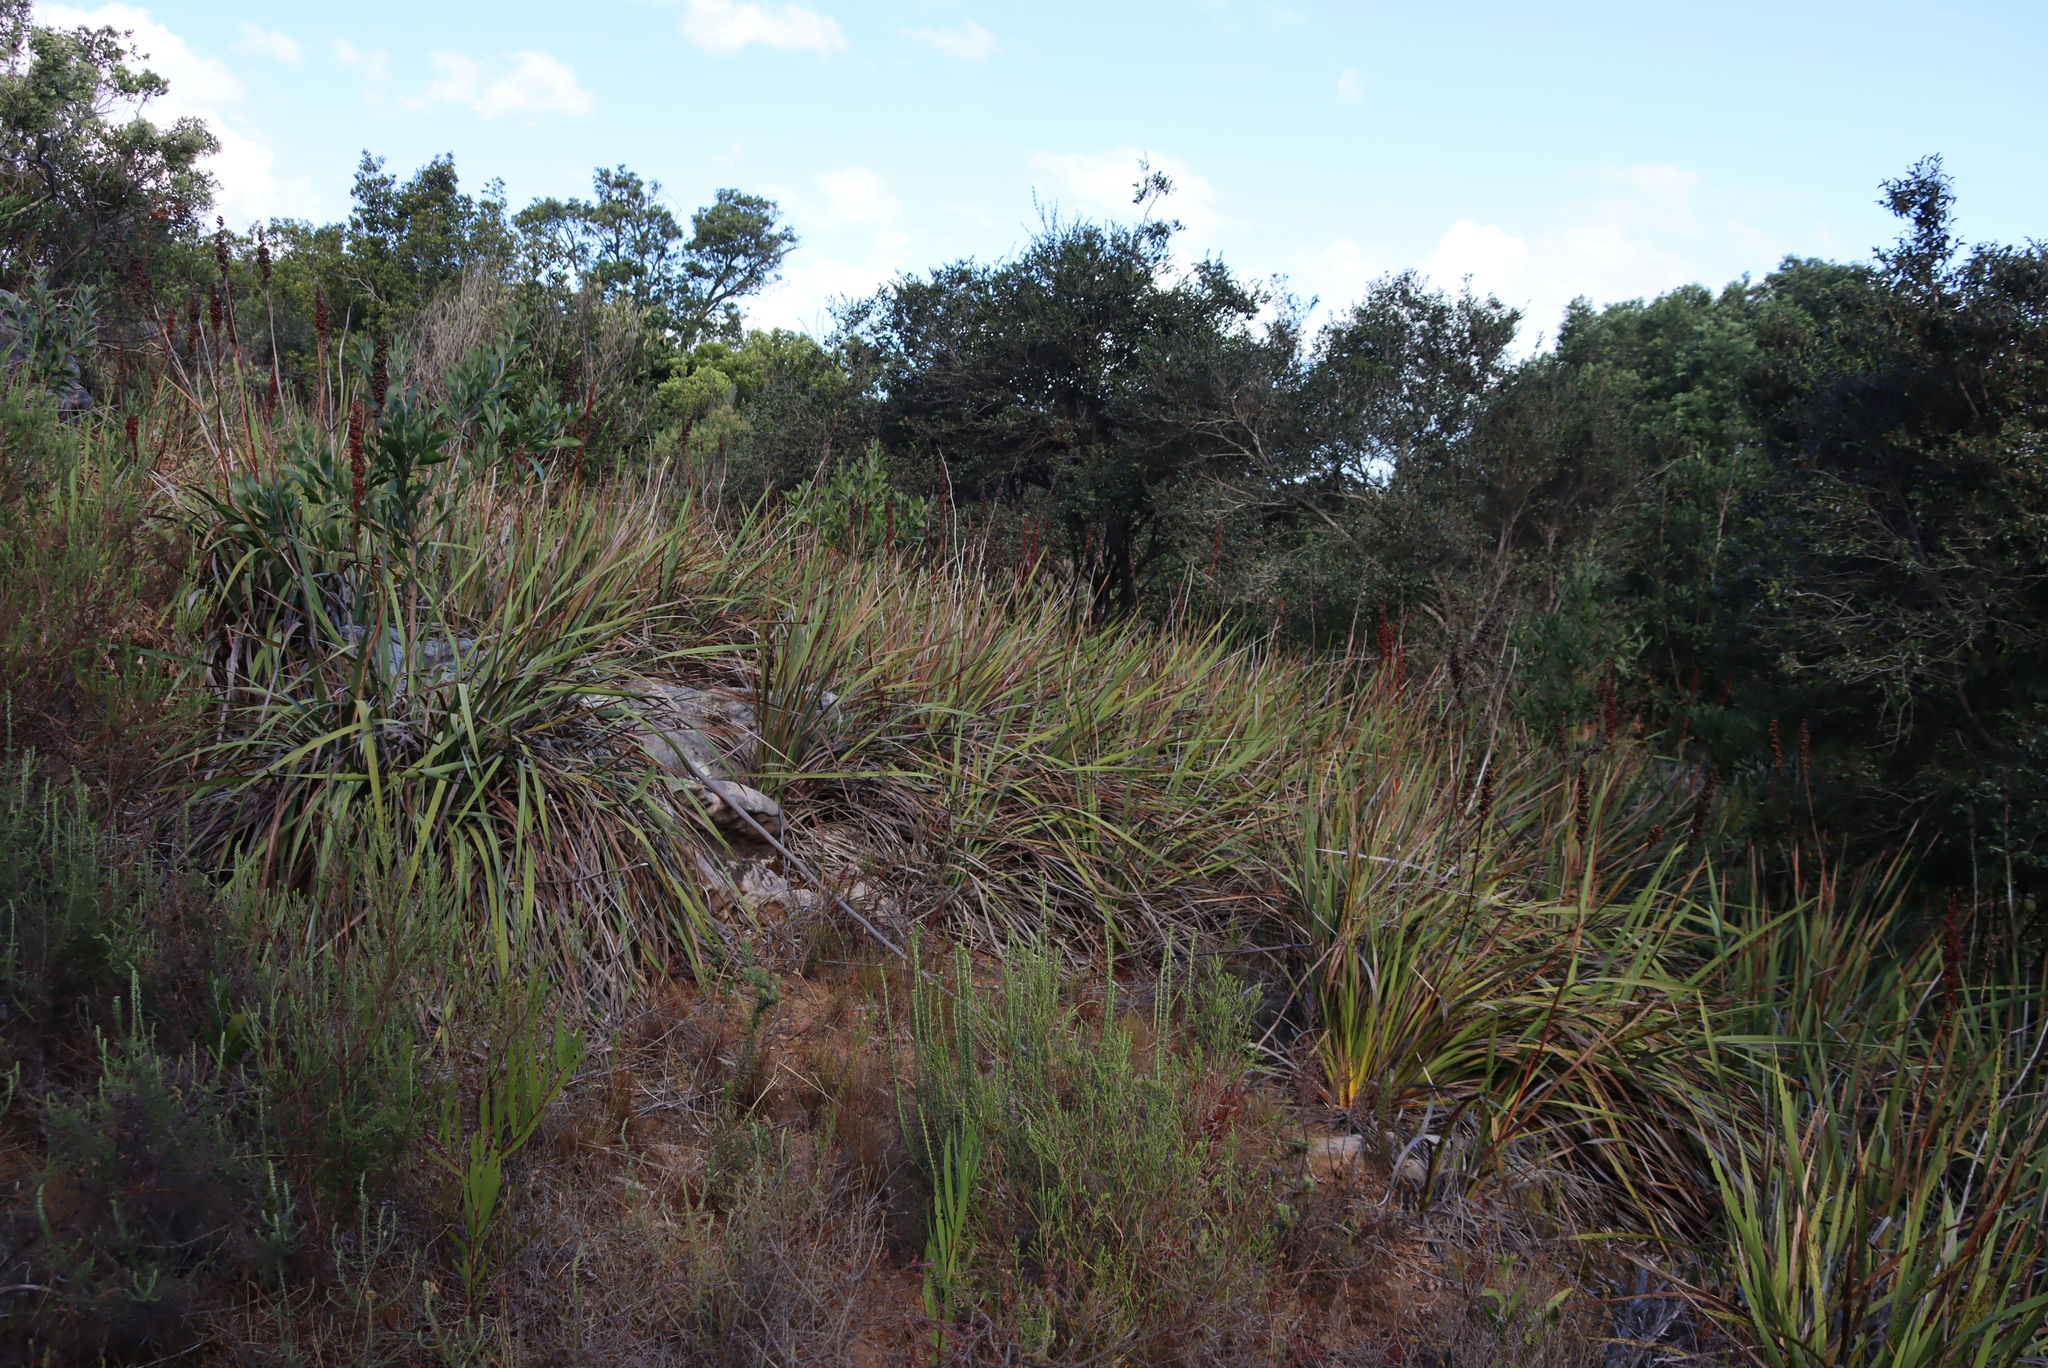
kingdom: Plantae
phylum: Tracheophyta
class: Liliopsida
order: Asparagales
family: Iridaceae
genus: Aristea
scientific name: Aristea capitata
